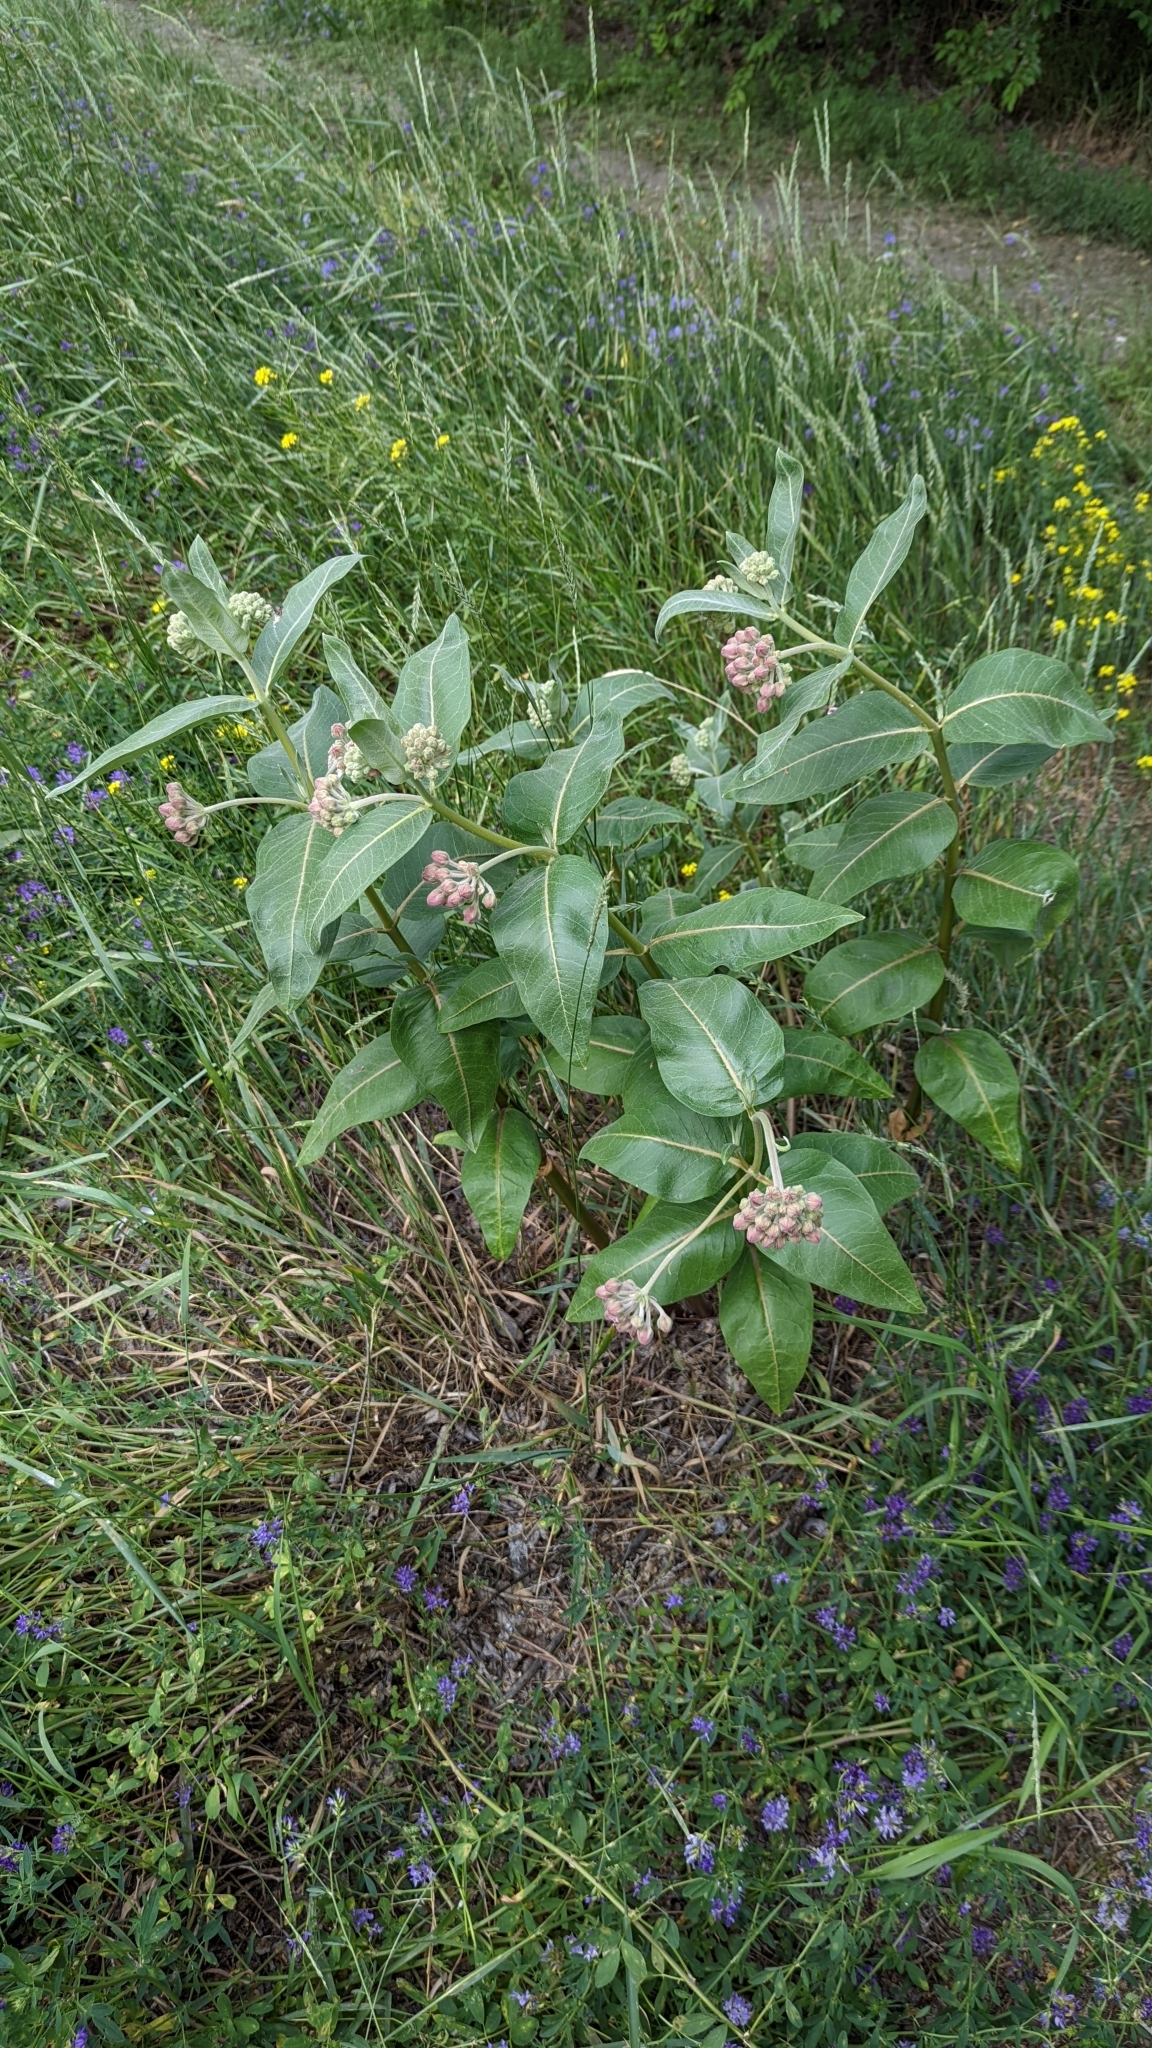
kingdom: Plantae
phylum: Tracheophyta
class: Magnoliopsida
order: Gentianales
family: Apocynaceae
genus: Asclepias
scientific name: Asclepias speciosa
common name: Showy milkweed
